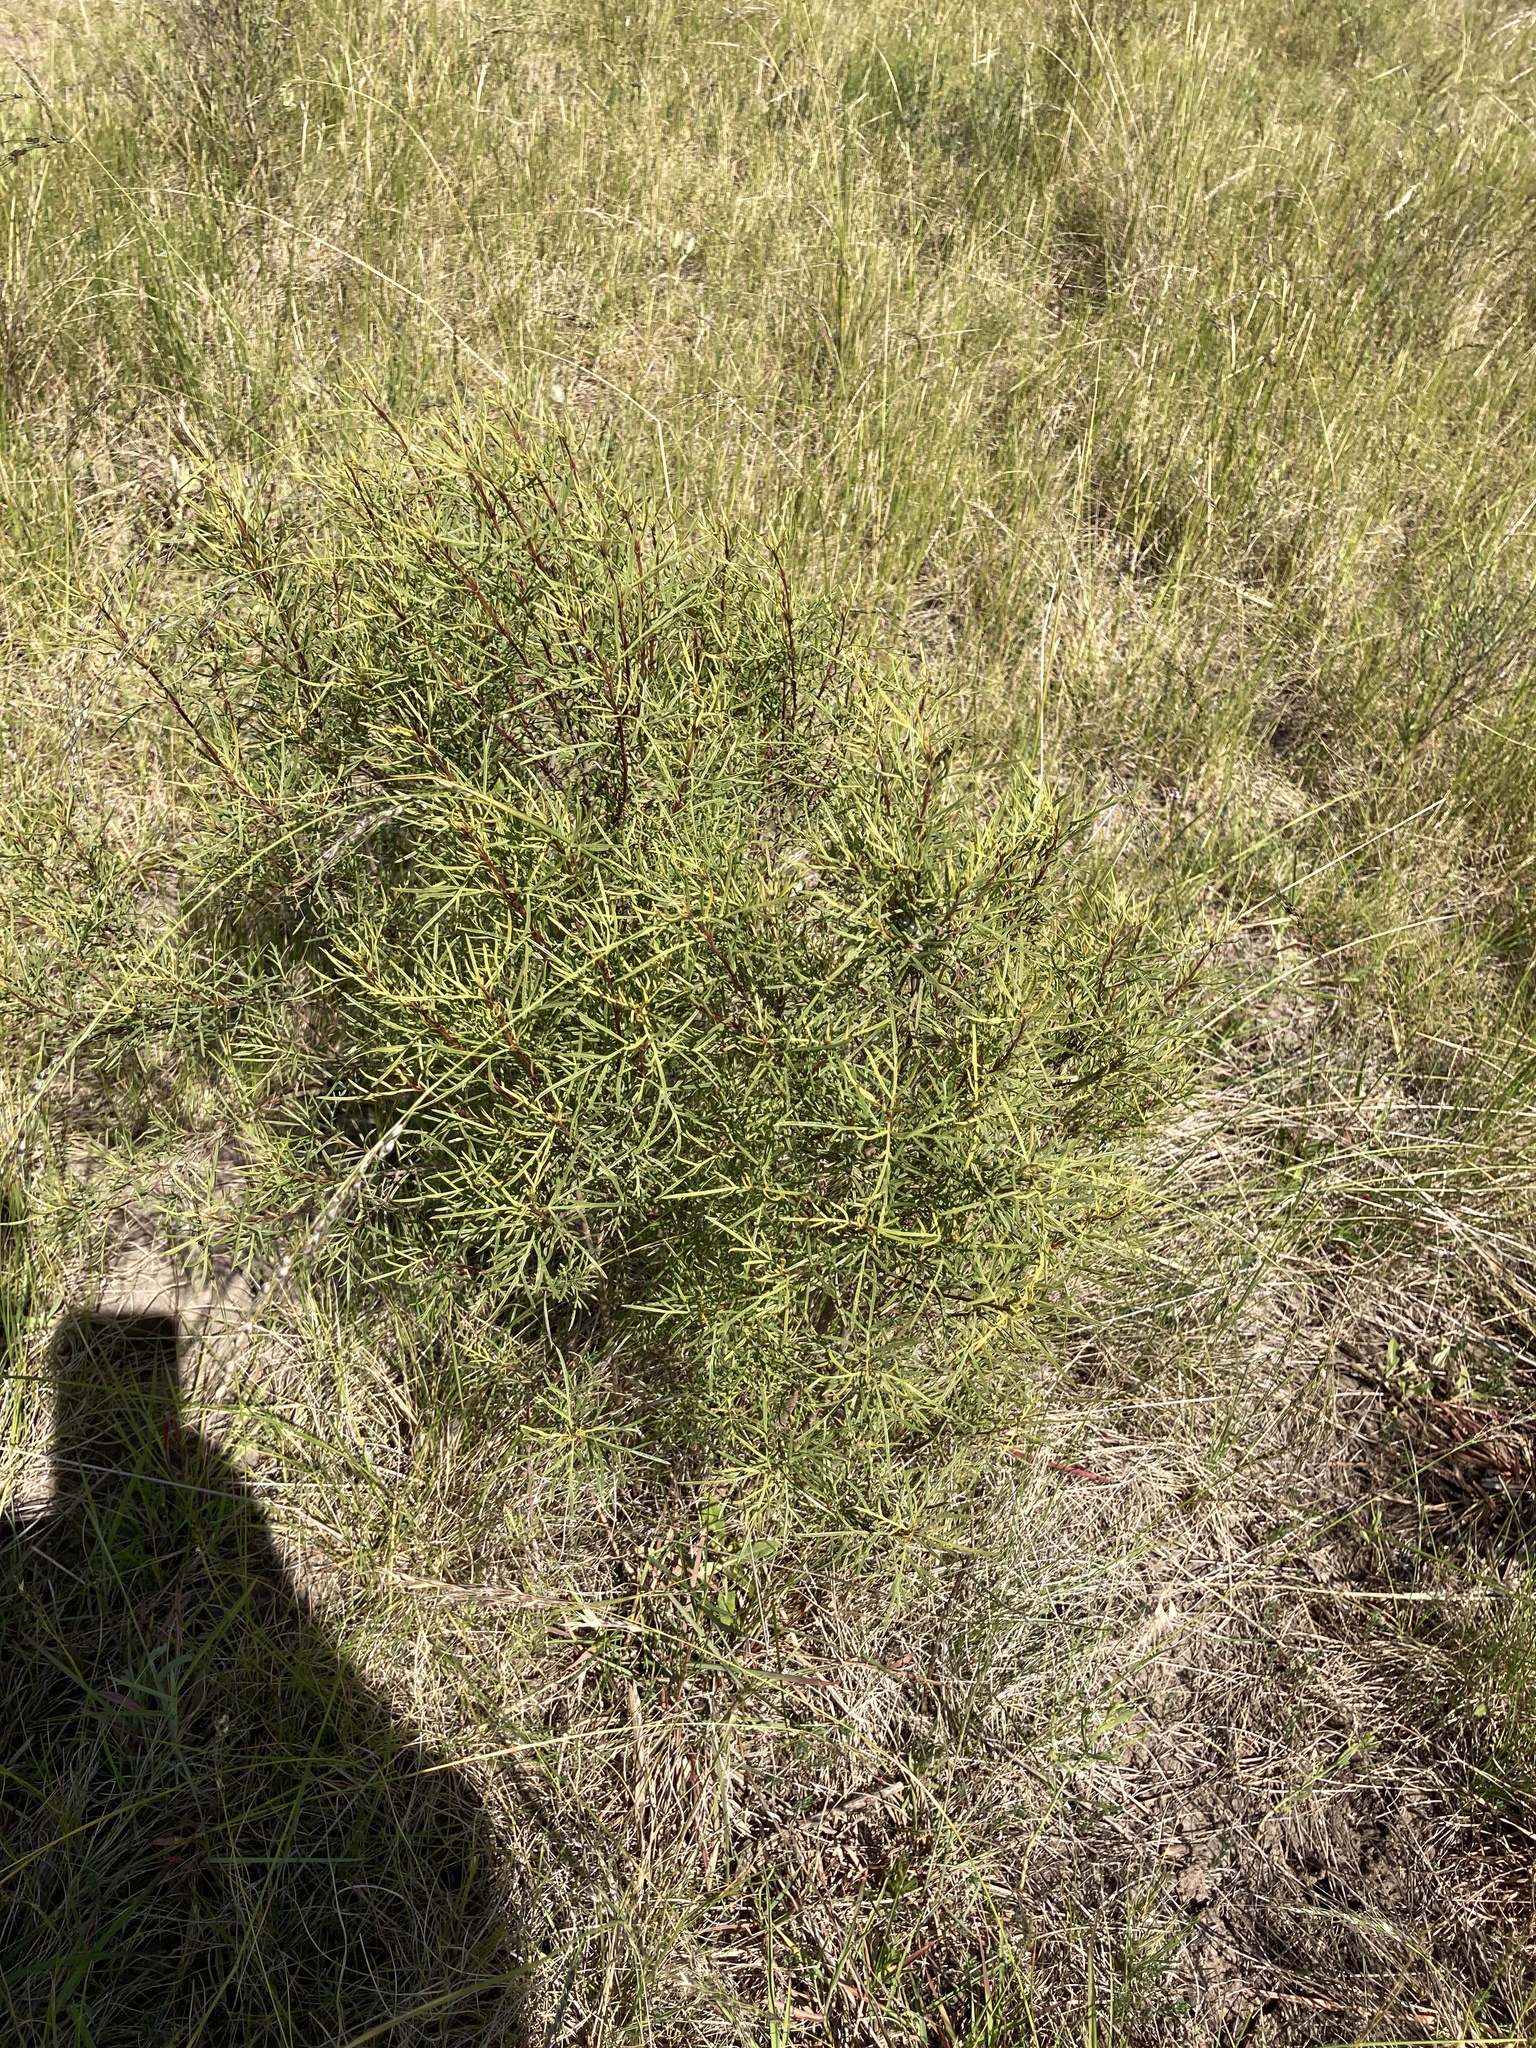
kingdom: Plantae
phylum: Tracheophyta
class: Magnoliopsida
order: Asterales
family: Asteraceae
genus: Acanthostyles
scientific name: Acanthostyles buniifolius
